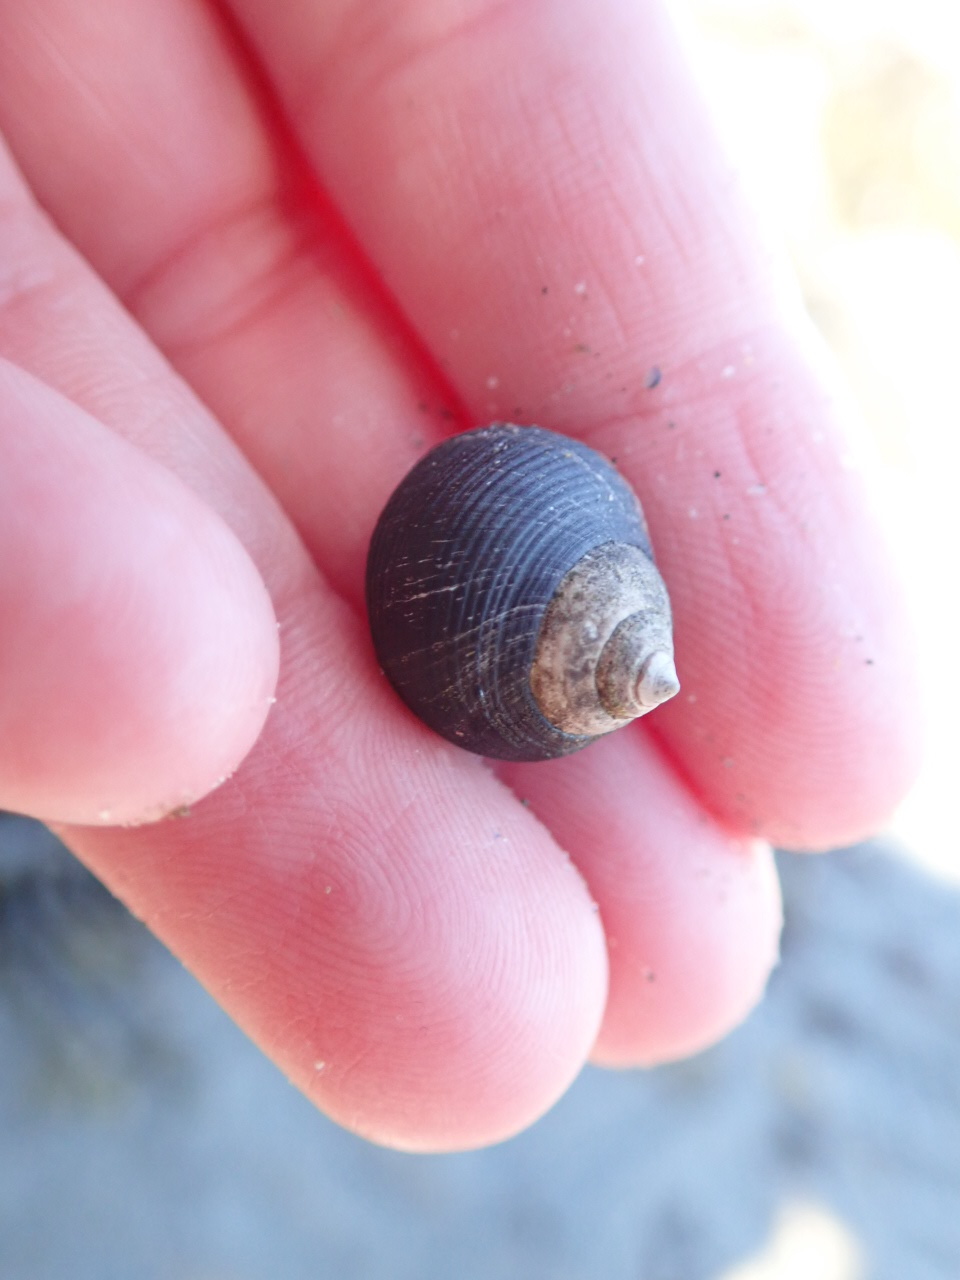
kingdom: Animalia
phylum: Mollusca
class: Gastropoda
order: Littorinimorpha
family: Littorinidae
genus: Littorina
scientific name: Littorina littorea
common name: Common periwinkle
